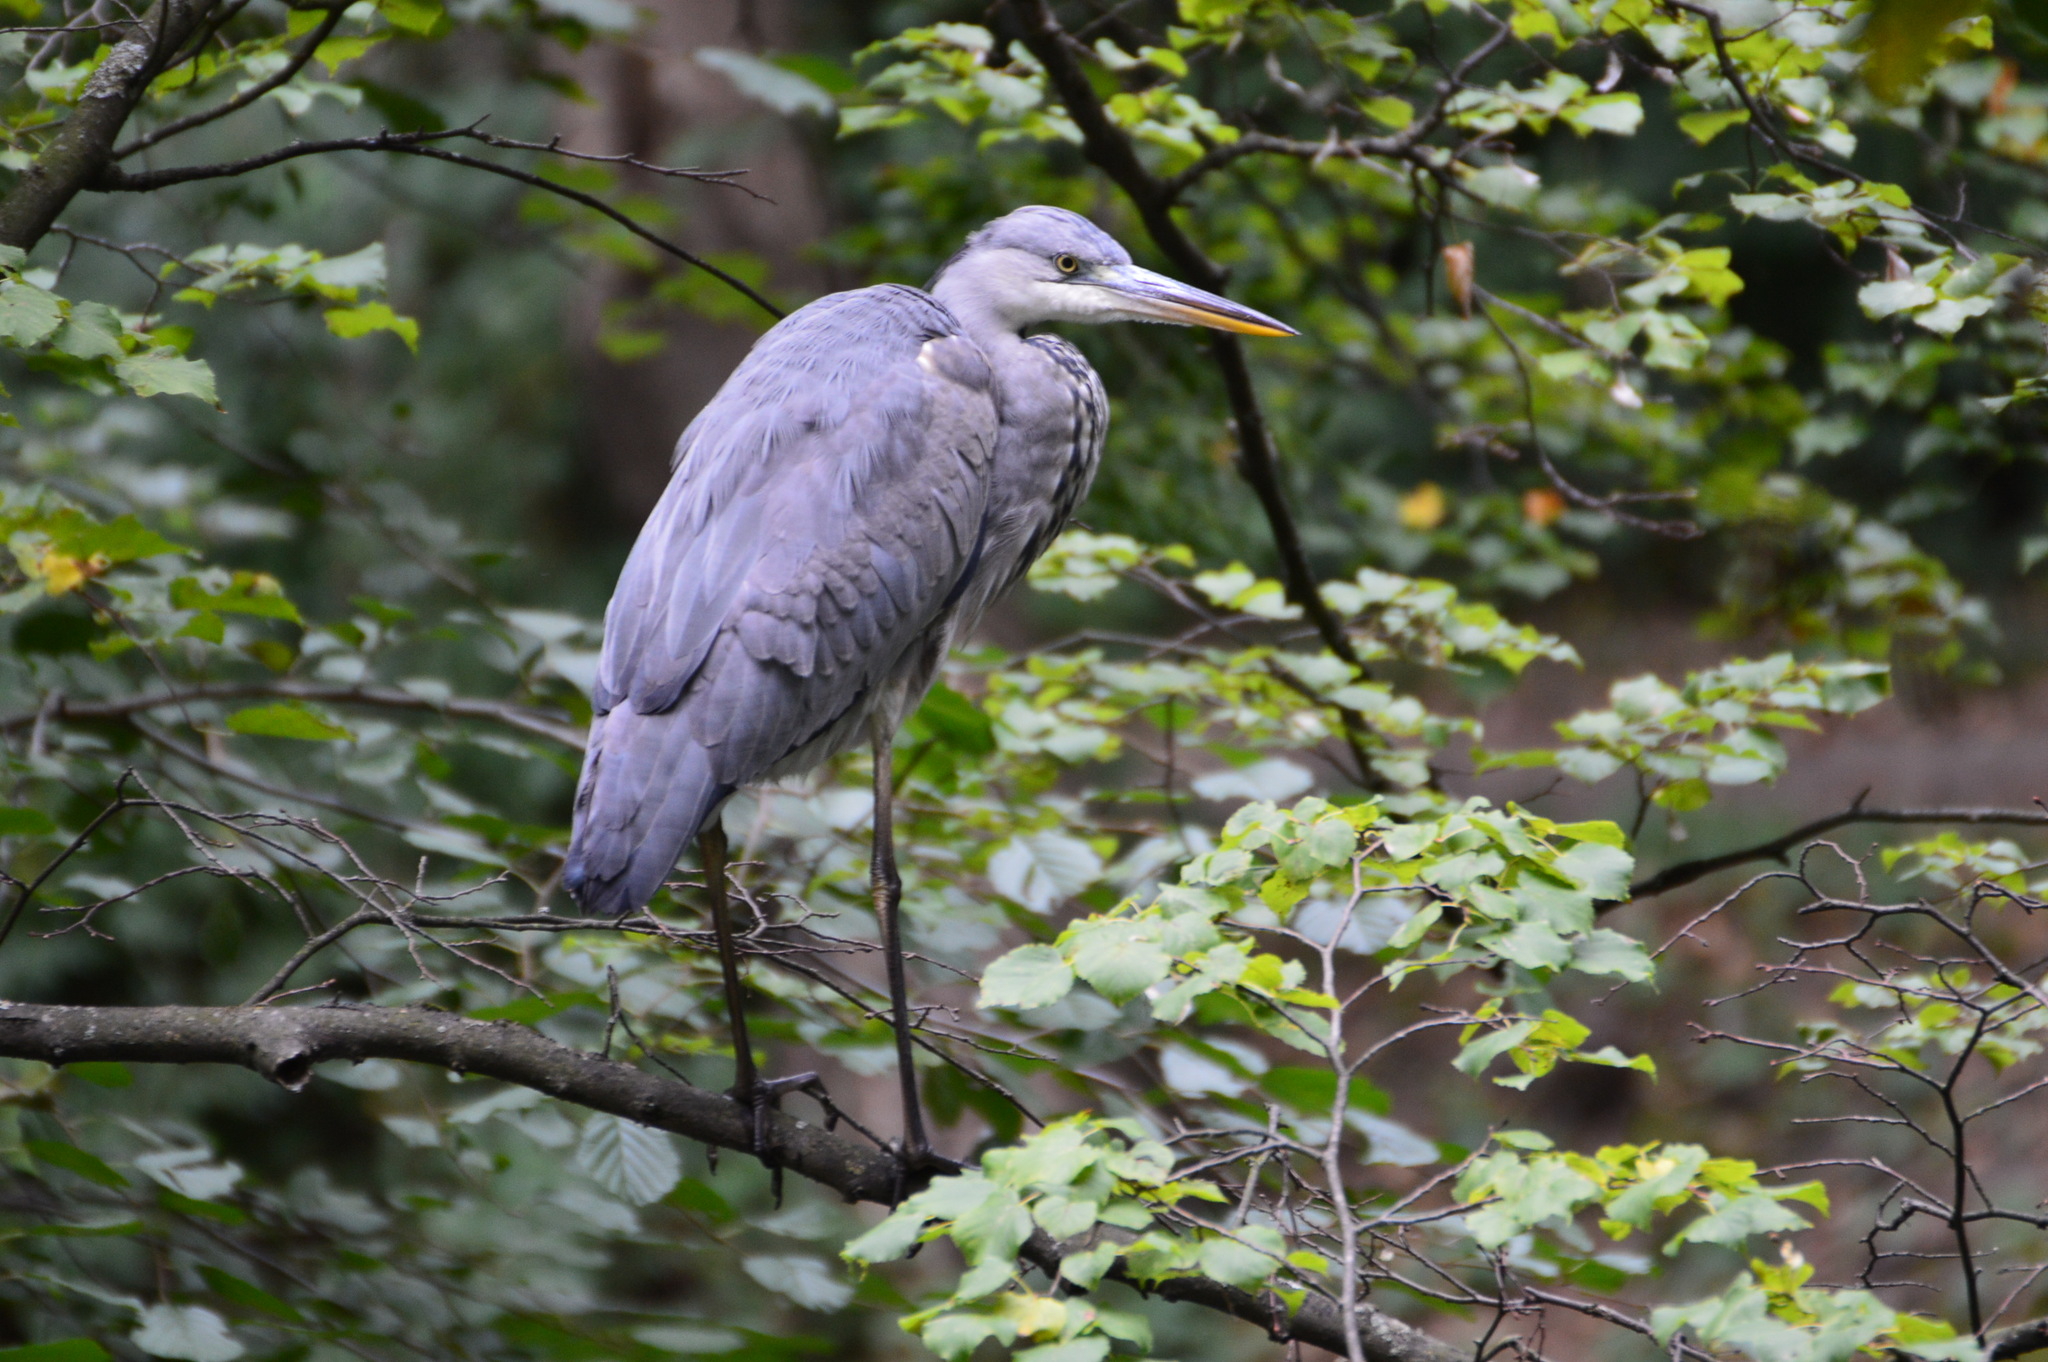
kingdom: Animalia
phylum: Chordata
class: Aves
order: Pelecaniformes
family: Ardeidae
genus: Ardea
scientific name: Ardea cinerea
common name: Grey heron
